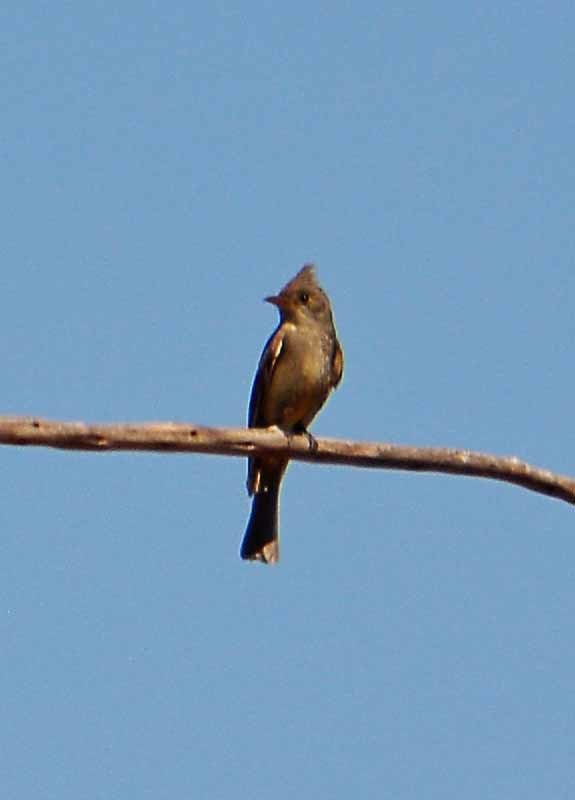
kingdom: Animalia
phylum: Chordata
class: Aves
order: Passeriformes
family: Tyrannidae
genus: Contopus
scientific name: Contopus pertinax
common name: Greater pewee
